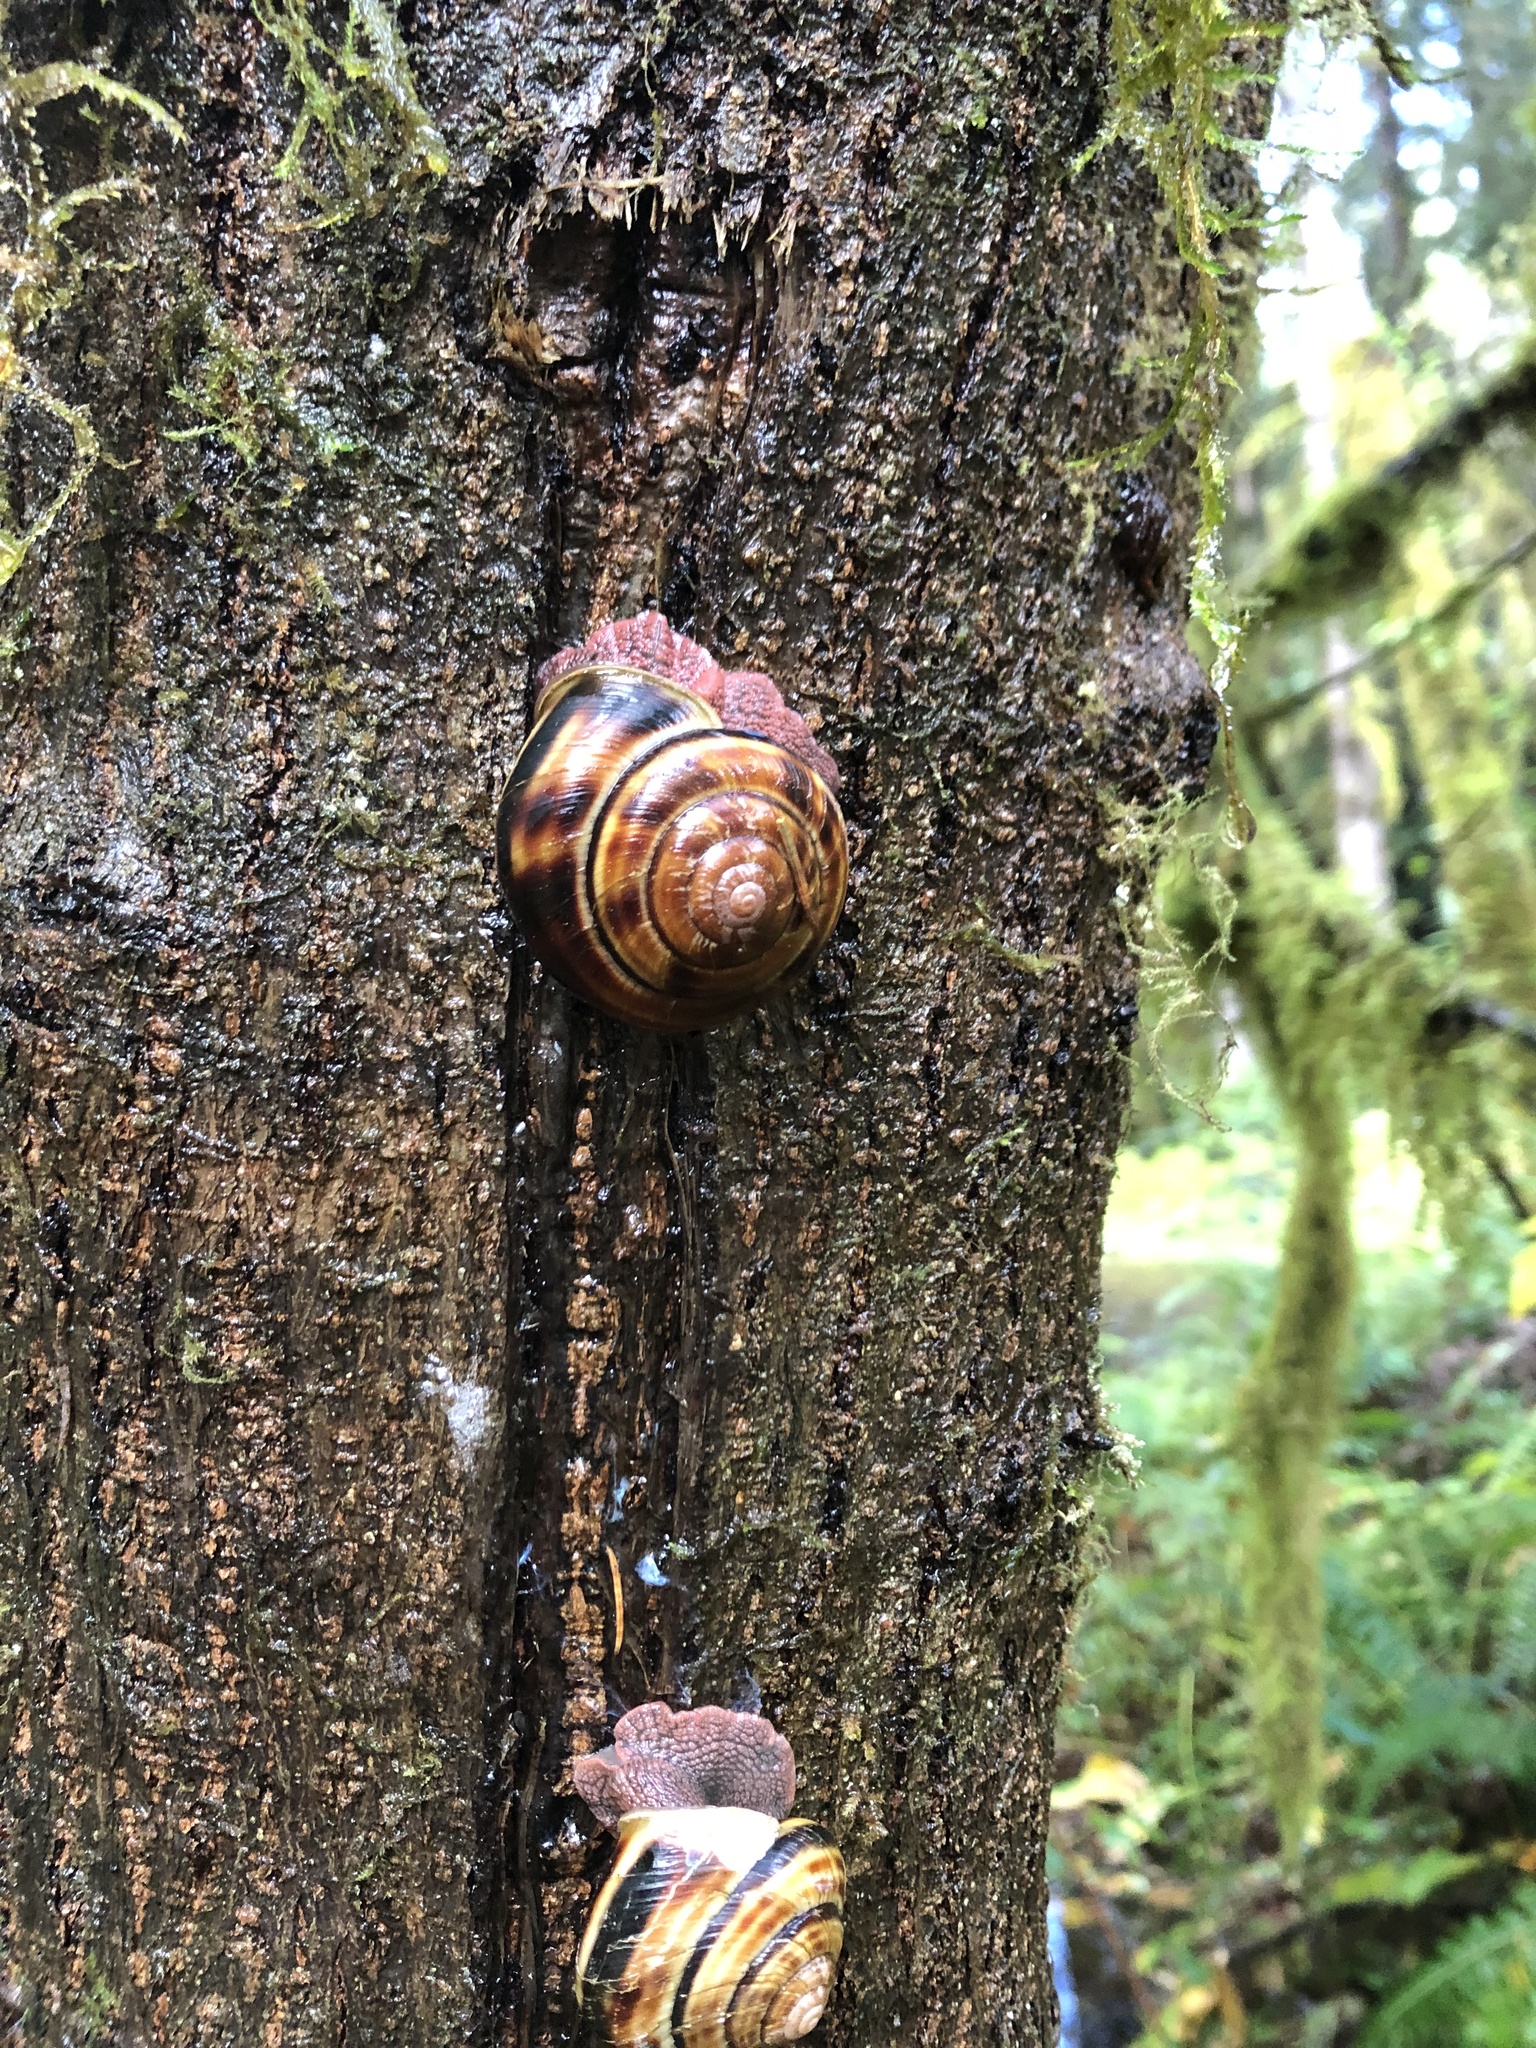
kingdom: Animalia
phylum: Mollusca
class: Gastropoda
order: Stylommatophora
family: Xanthonychidae
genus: Monadenia
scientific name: Monadenia fidelis
